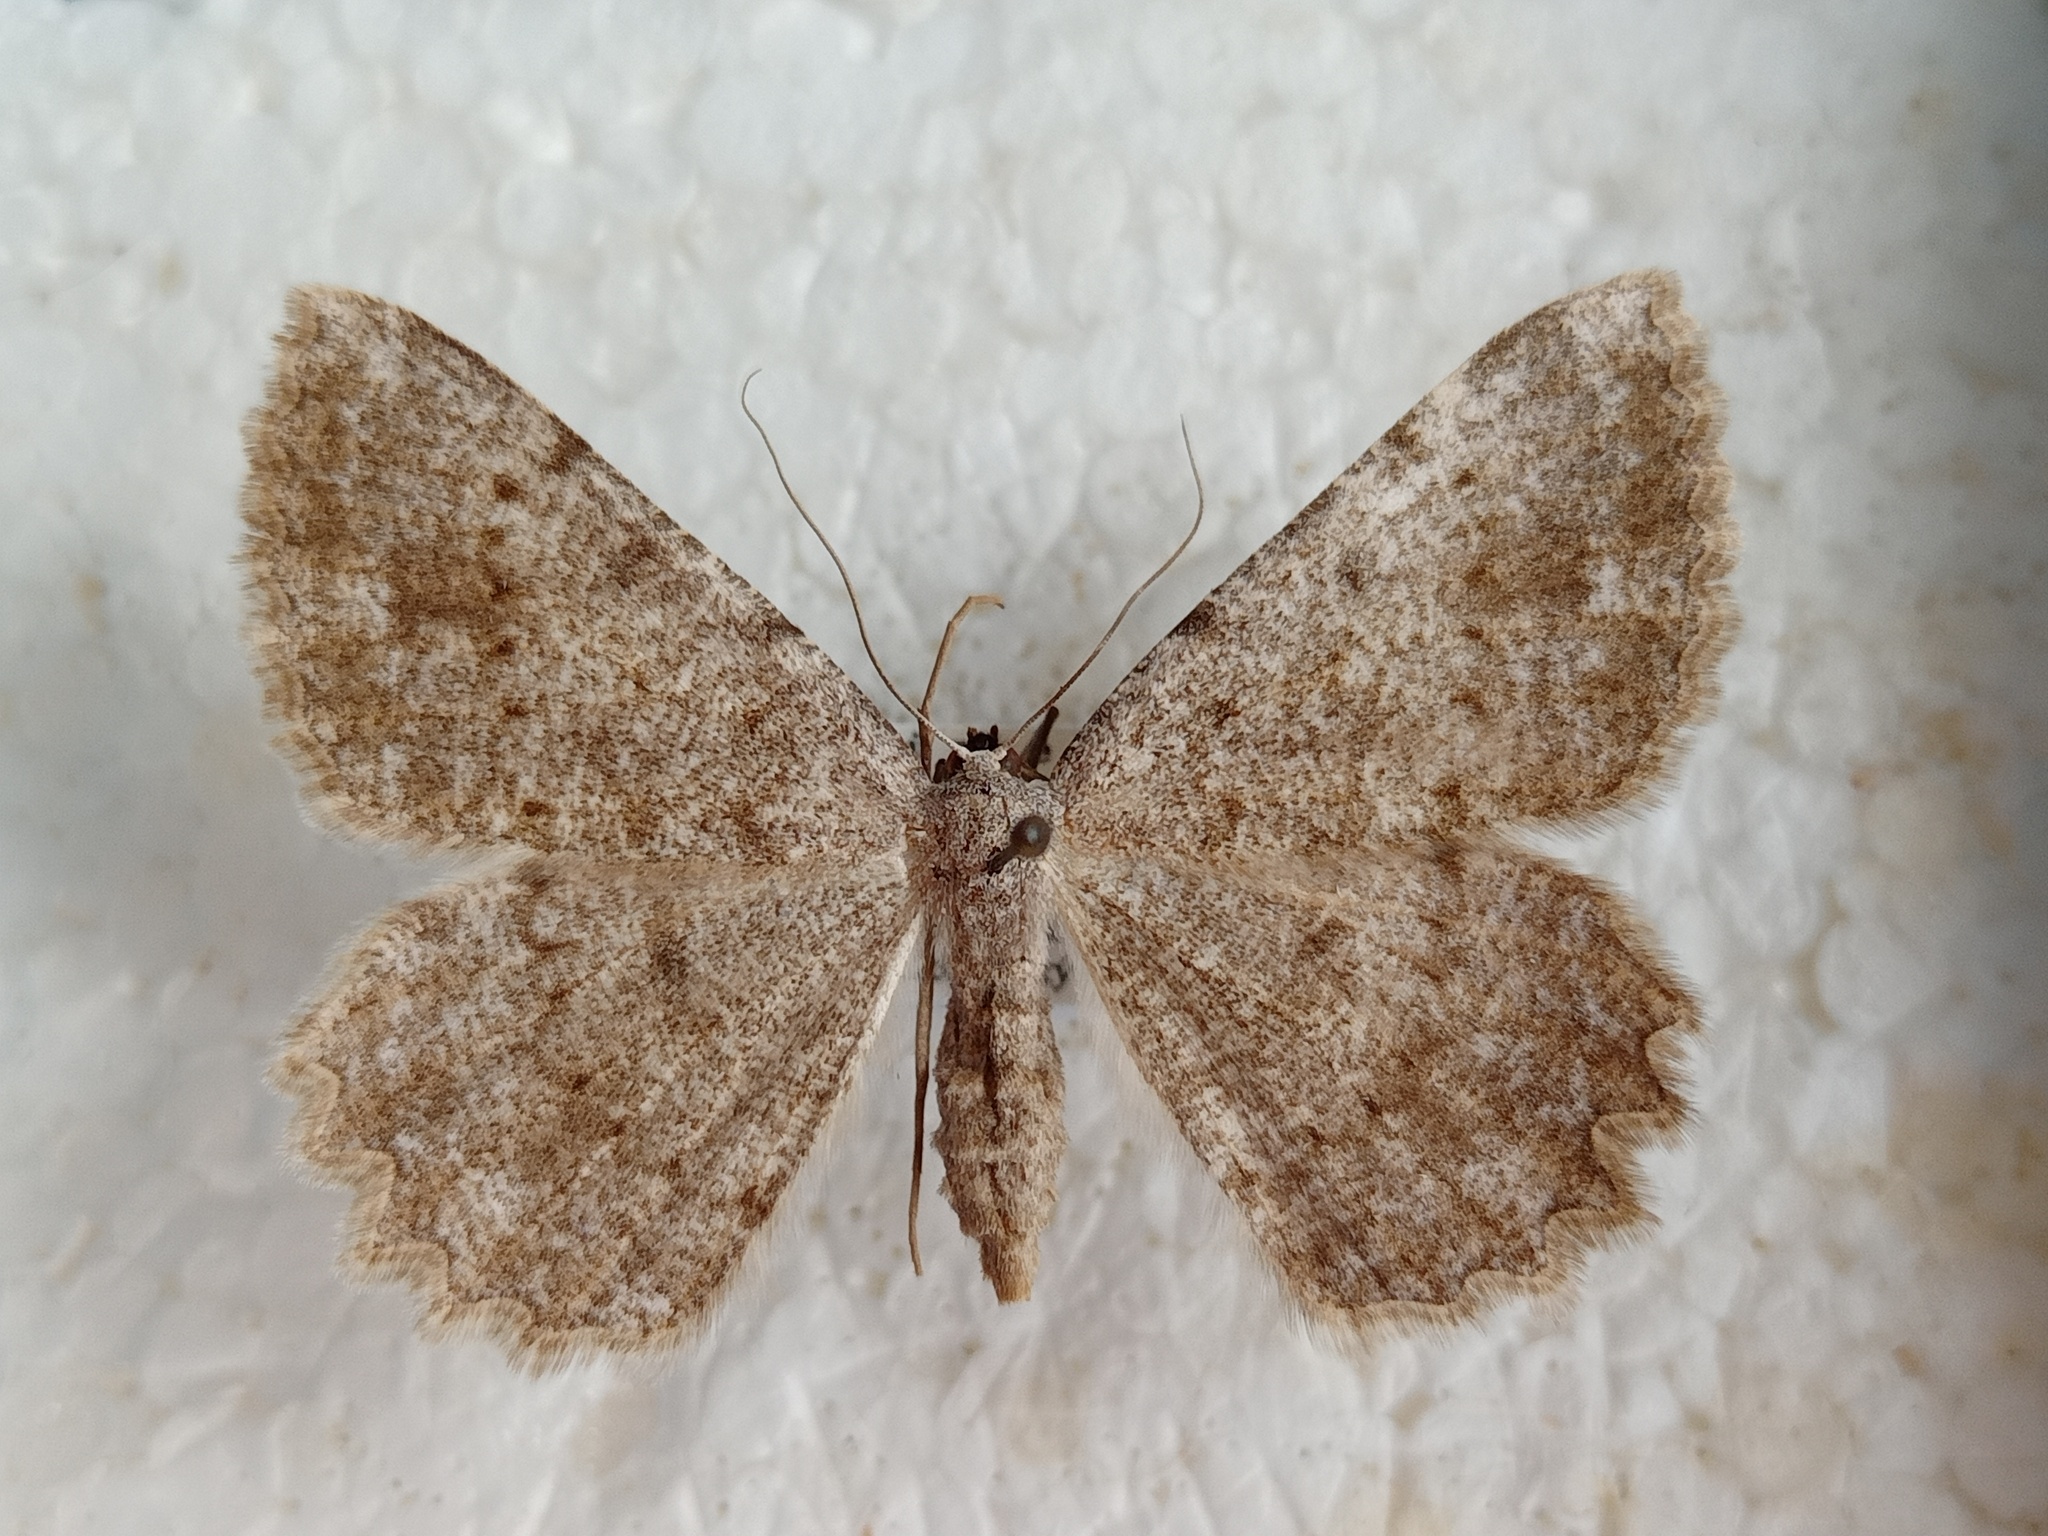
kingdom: Animalia
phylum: Arthropoda
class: Insecta
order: Lepidoptera
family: Geometridae
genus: Gnophos
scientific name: Gnophos sartata
